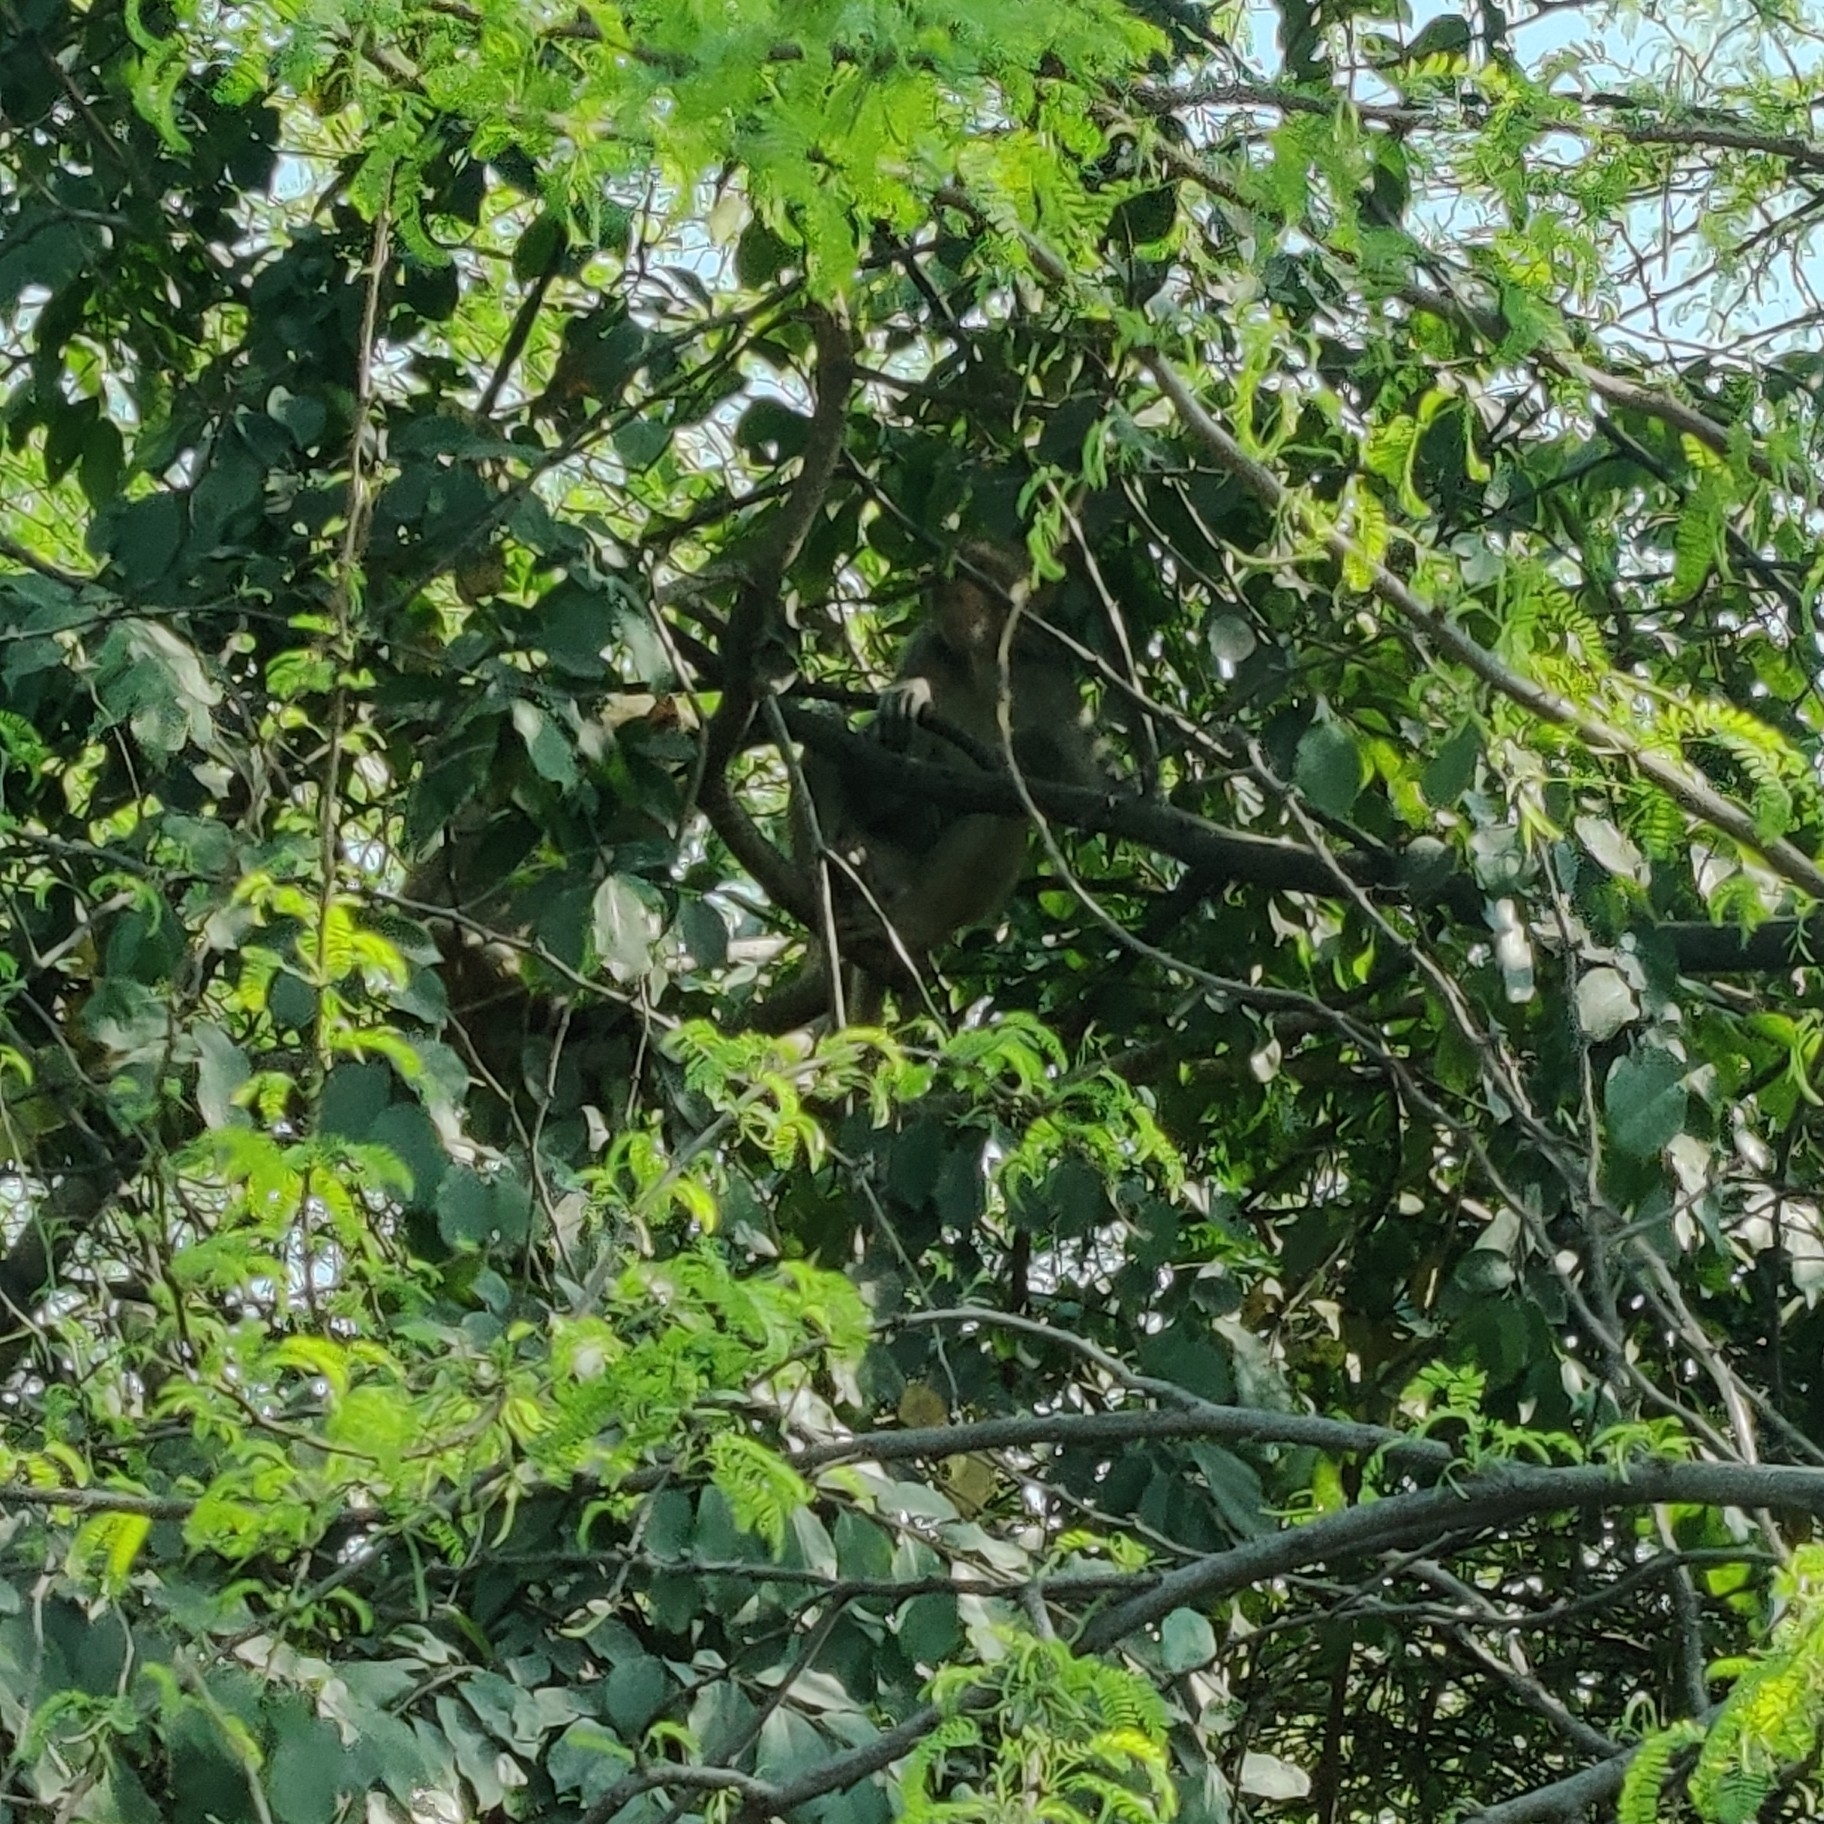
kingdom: Animalia
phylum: Chordata
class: Mammalia
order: Primates
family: Cercopithecidae
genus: Macaca
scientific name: Macaca mulatta
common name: Rhesus monkey
